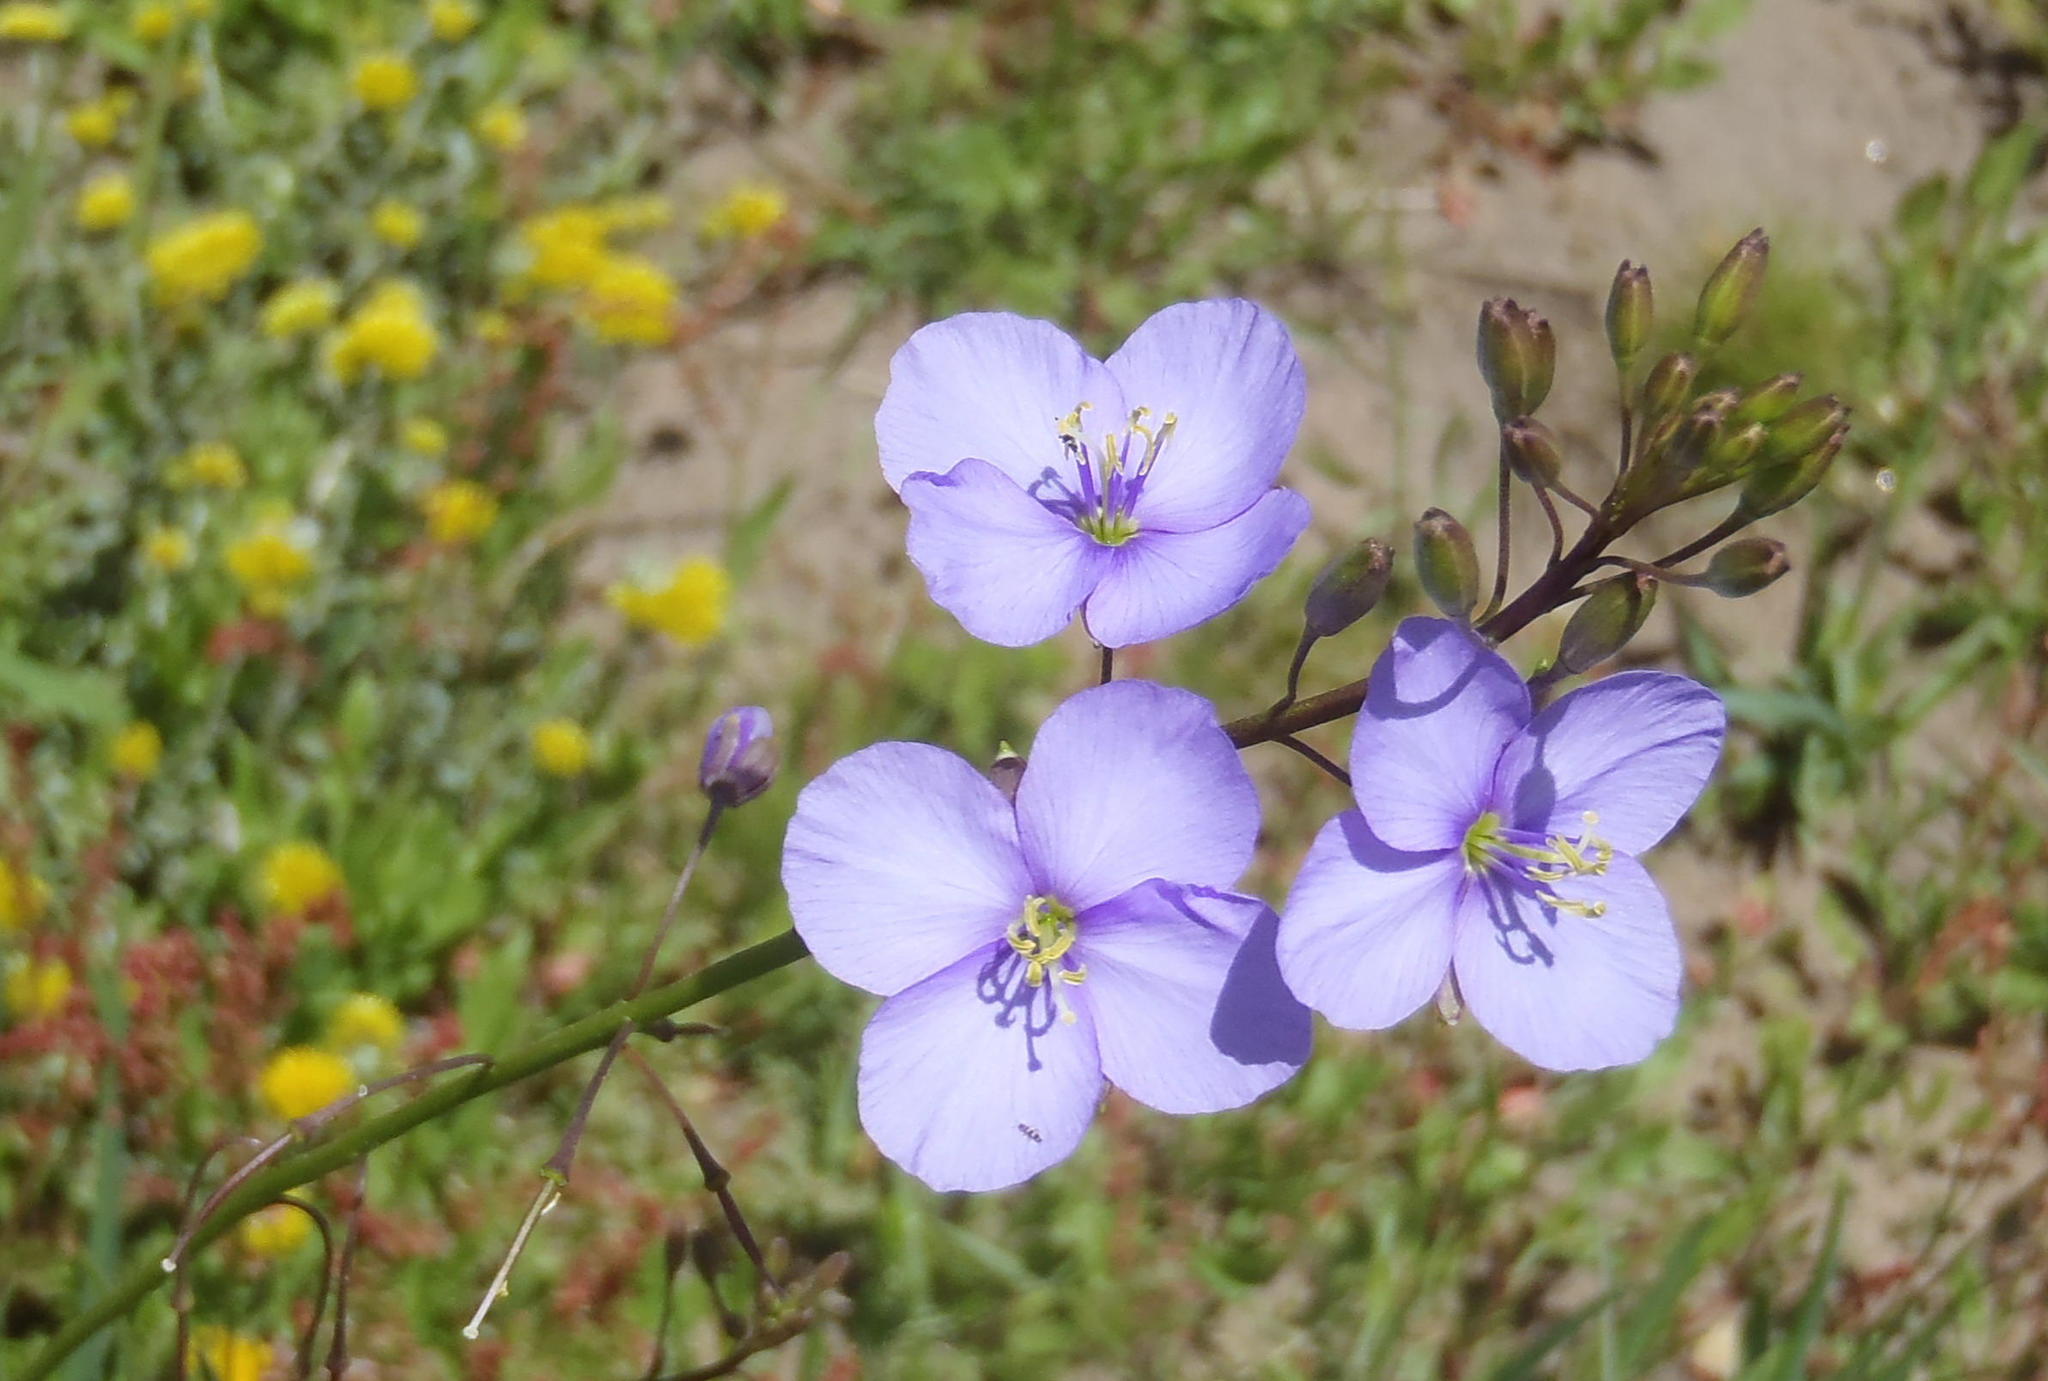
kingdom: Plantae
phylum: Tracheophyta
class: Magnoliopsida
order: Brassicales
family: Brassicaceae
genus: Heliophila
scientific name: Heliophila subulata
